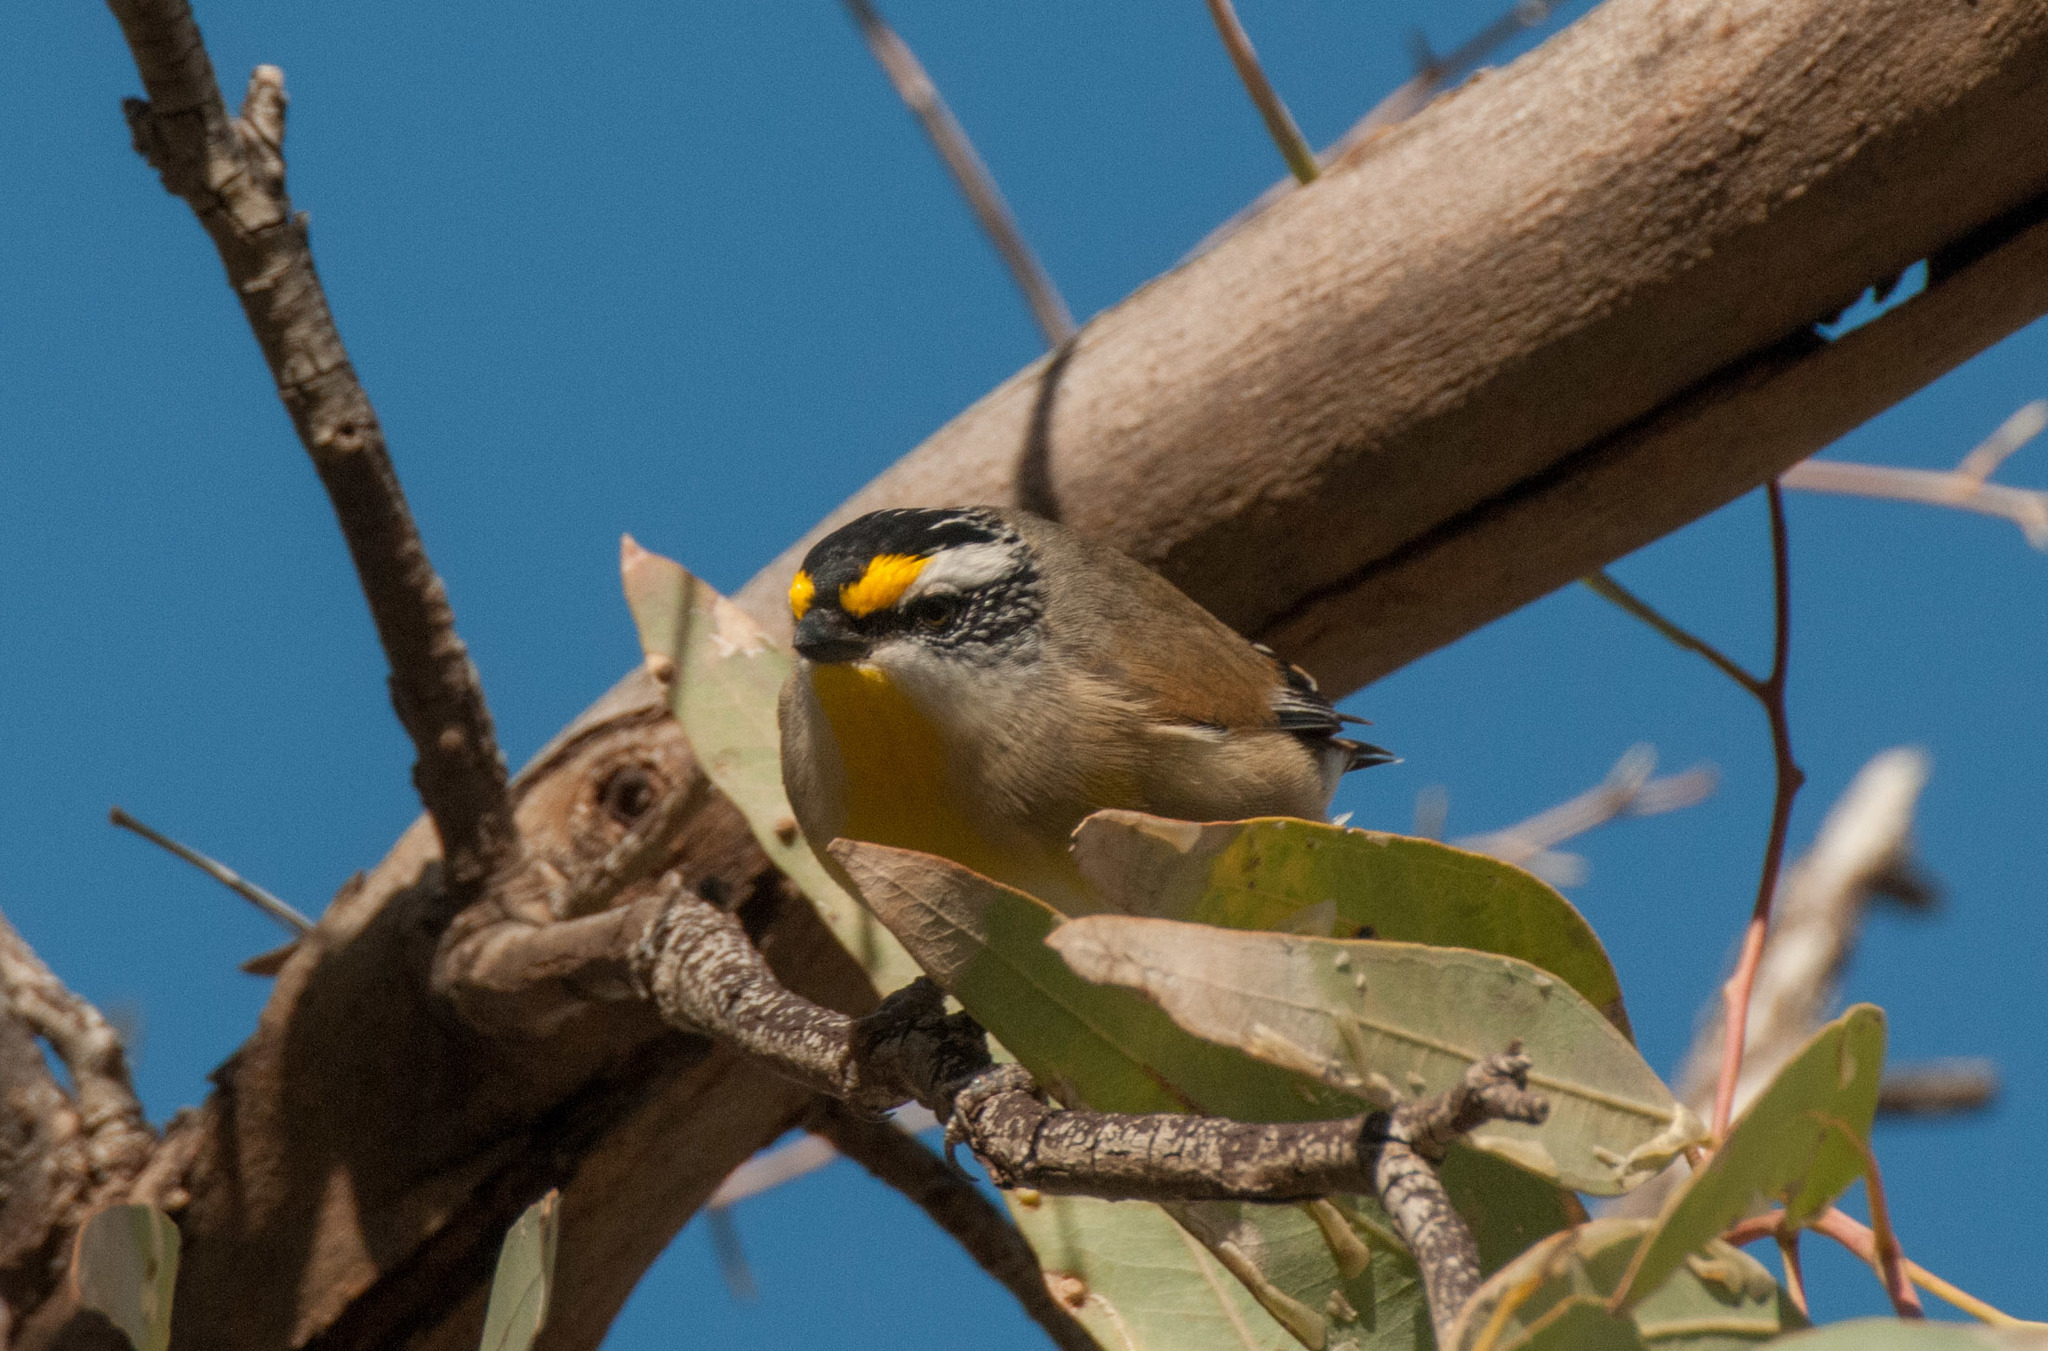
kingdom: Animalia
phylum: Chordata
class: Aves
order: Passeriformes
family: Pardalotidae
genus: Pardalotus
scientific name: Pardalotus striatus
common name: Striated pardalote
